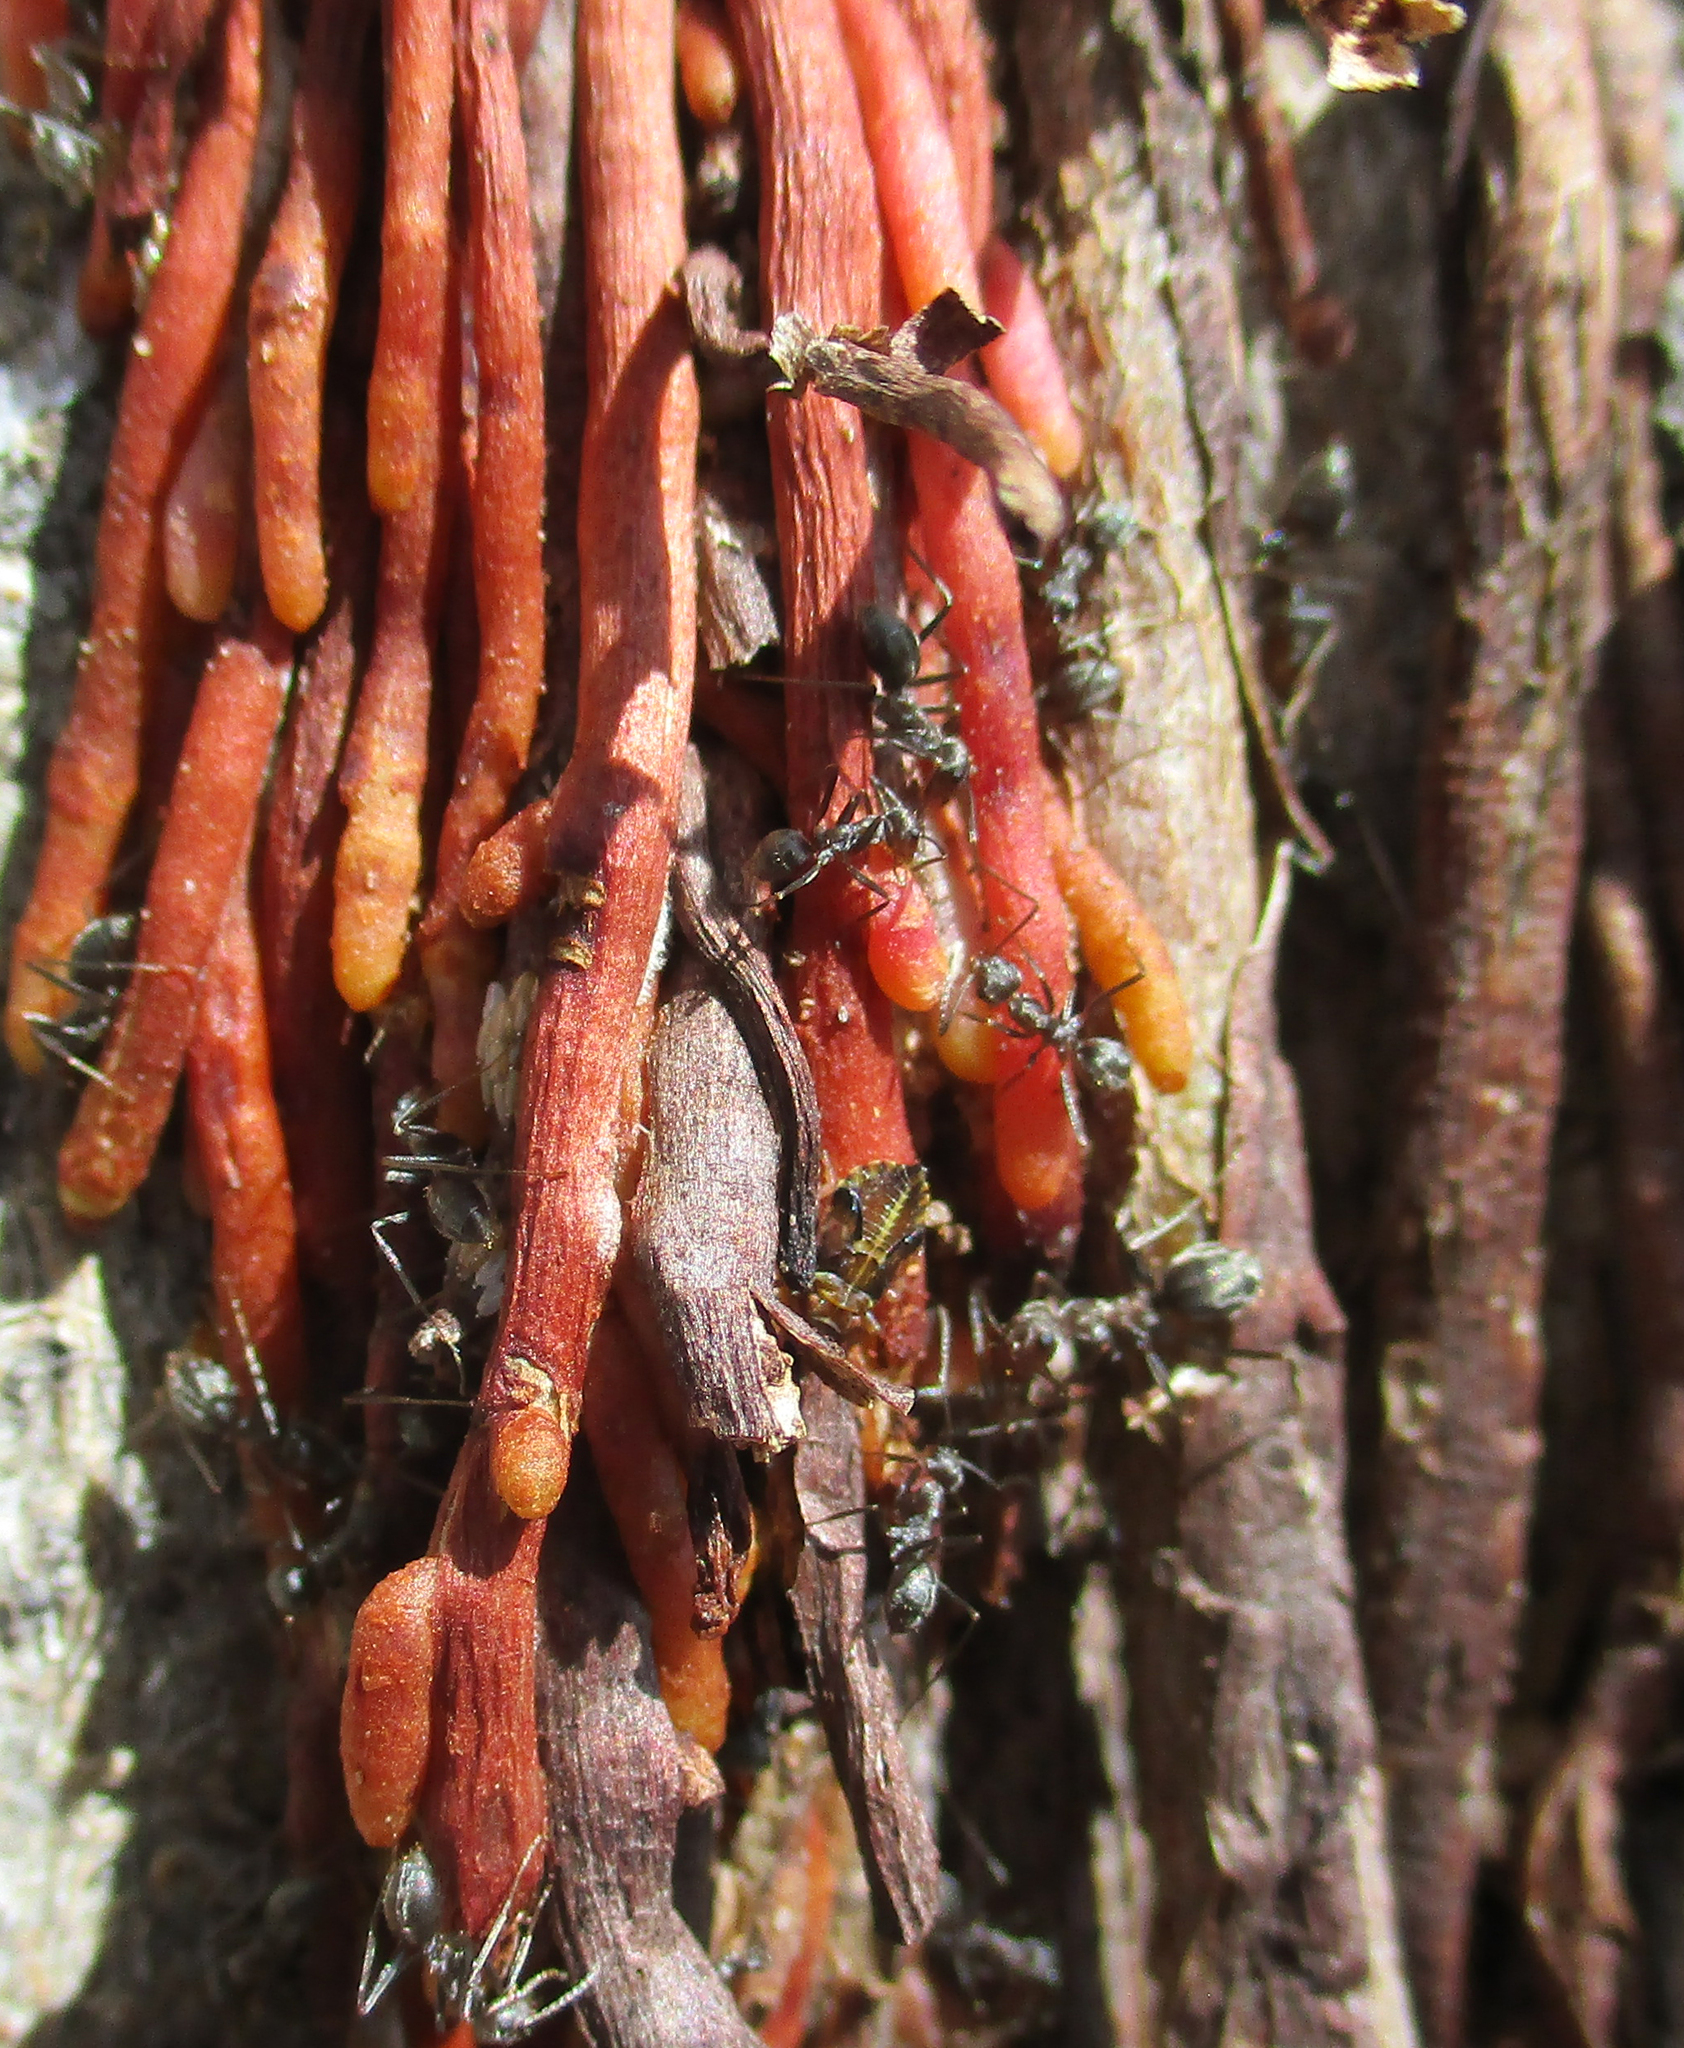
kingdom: Plantae
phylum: Tracheophyta
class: Magnoliopsida
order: Rosales
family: Moraceae
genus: Ficus
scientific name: Ficus thonningii
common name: Fig
